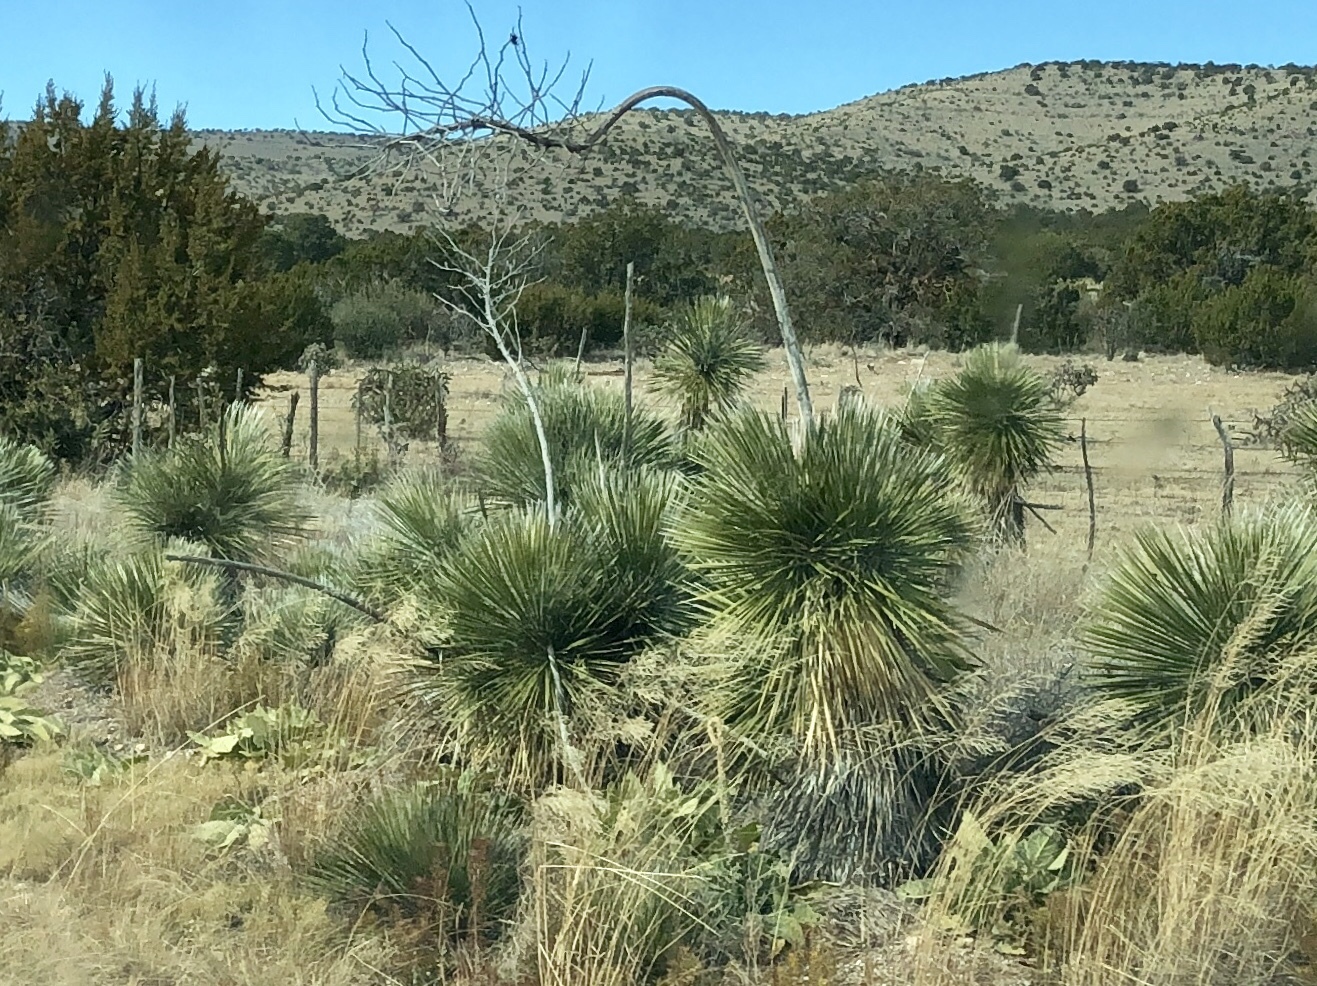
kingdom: Plantae
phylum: Tracheophyta
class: Liliopsida
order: Asparagales
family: Asparagaceae
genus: Yucca
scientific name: Yucca elata
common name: Palmella
